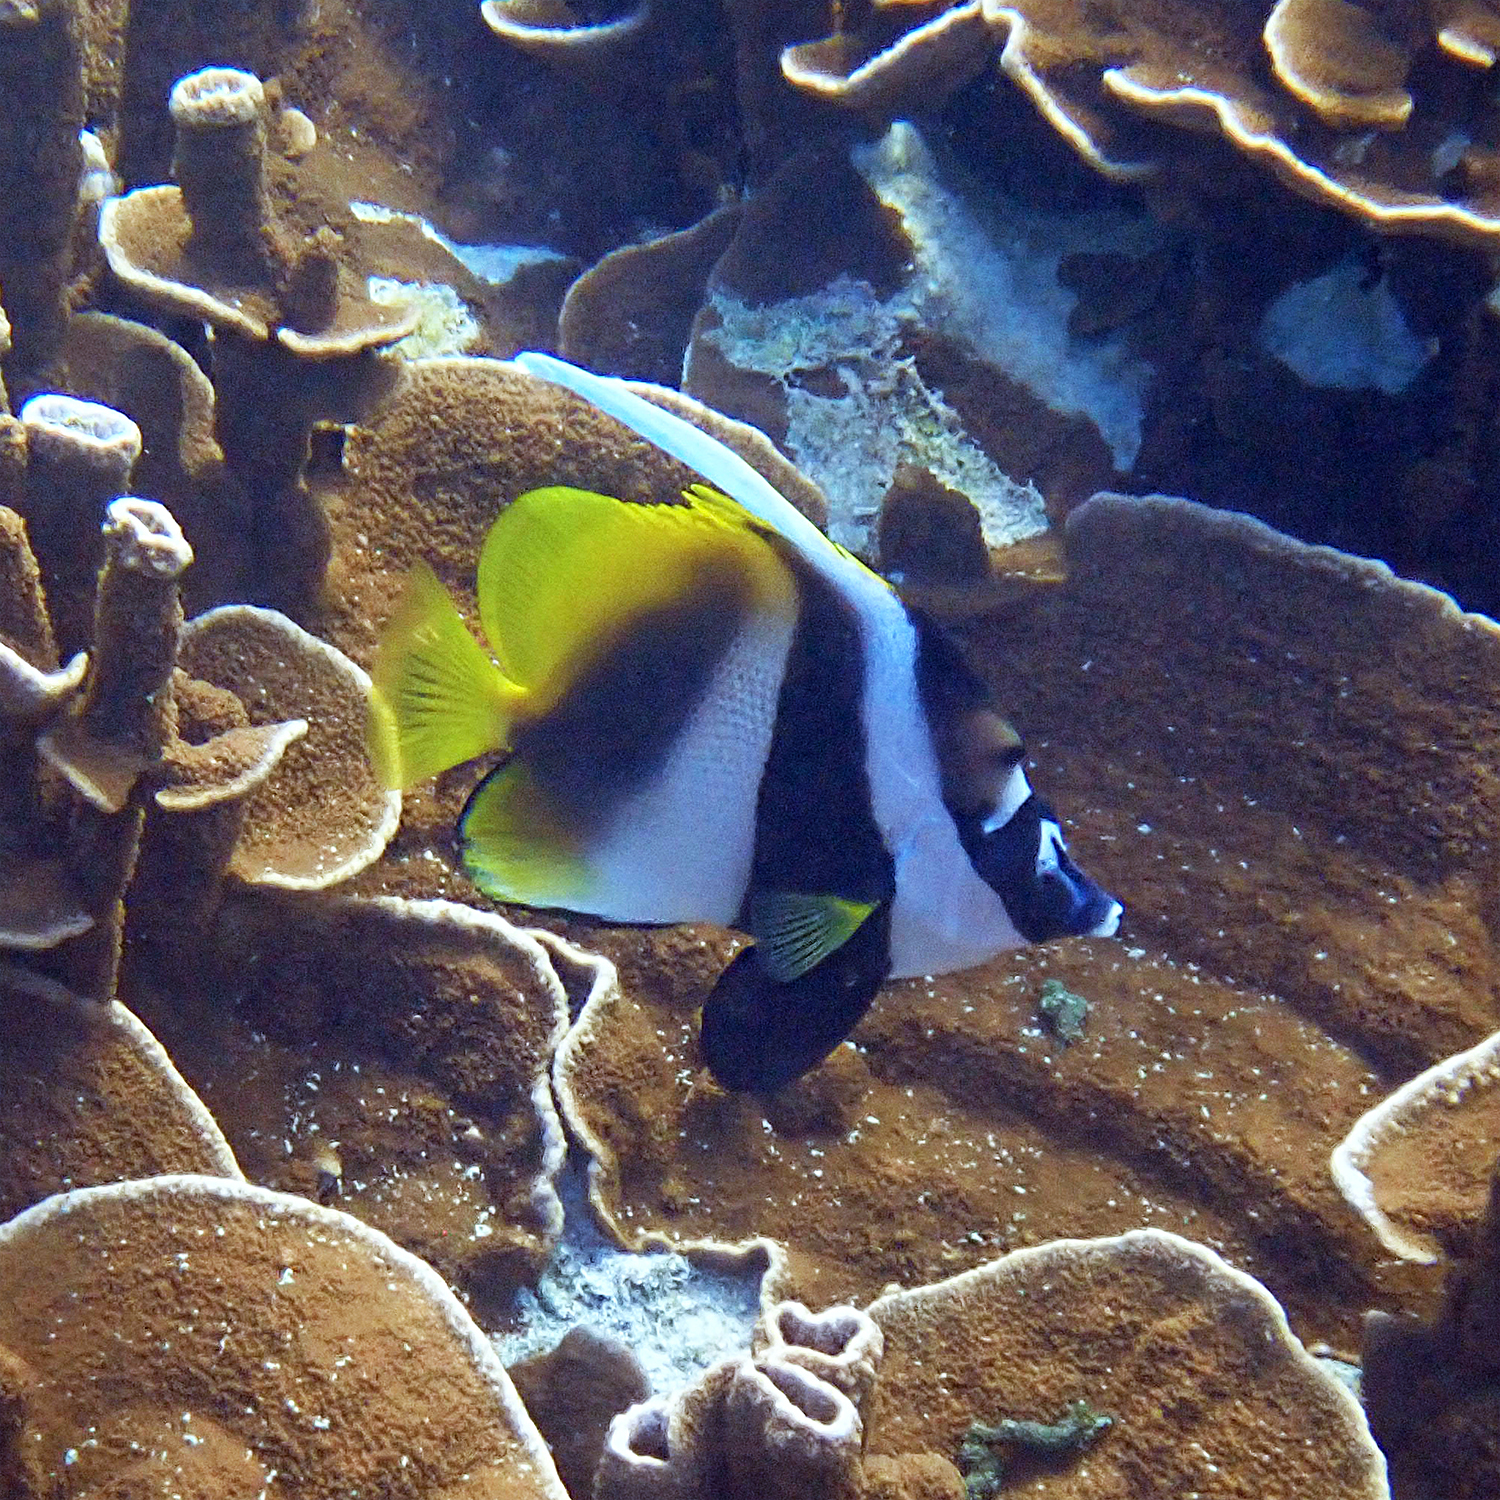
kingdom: Animalia
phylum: Chordata
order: Perciformes
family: Chaetodontidae
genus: Heniochus
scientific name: Heniochus monoceros
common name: Masked bannerfish
